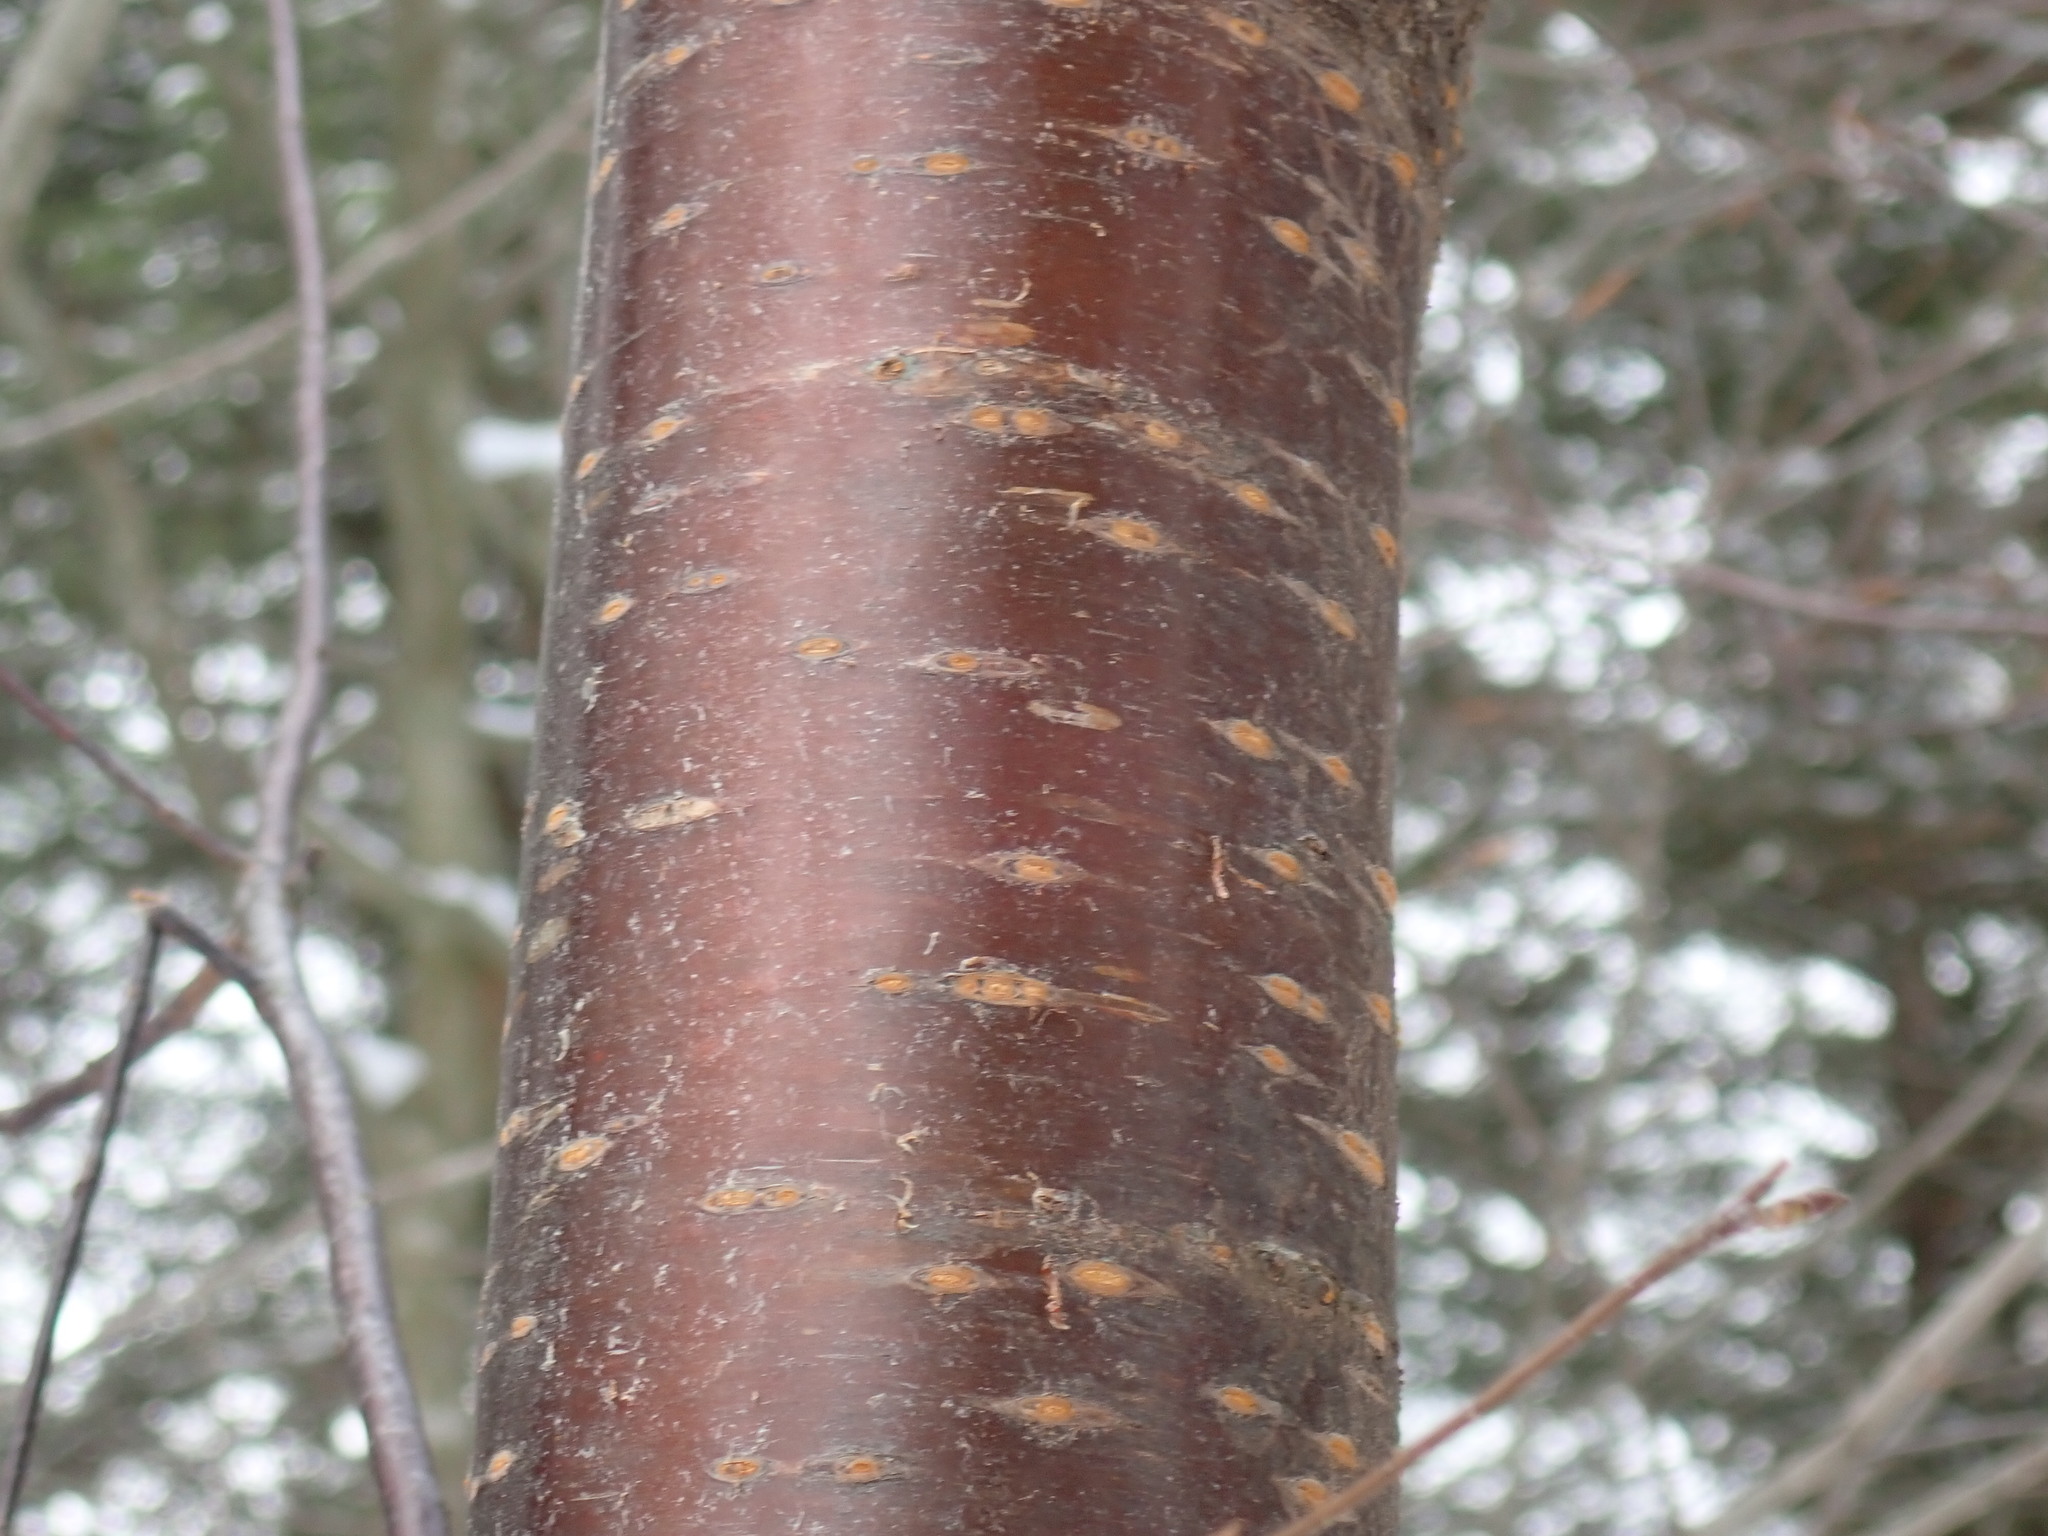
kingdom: Plantae
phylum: Tracheophyta
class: Magnoliopsida
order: Rosales
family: Rosaceae
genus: Prunus
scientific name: Prunus pensylvanica
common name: Pin cherry
